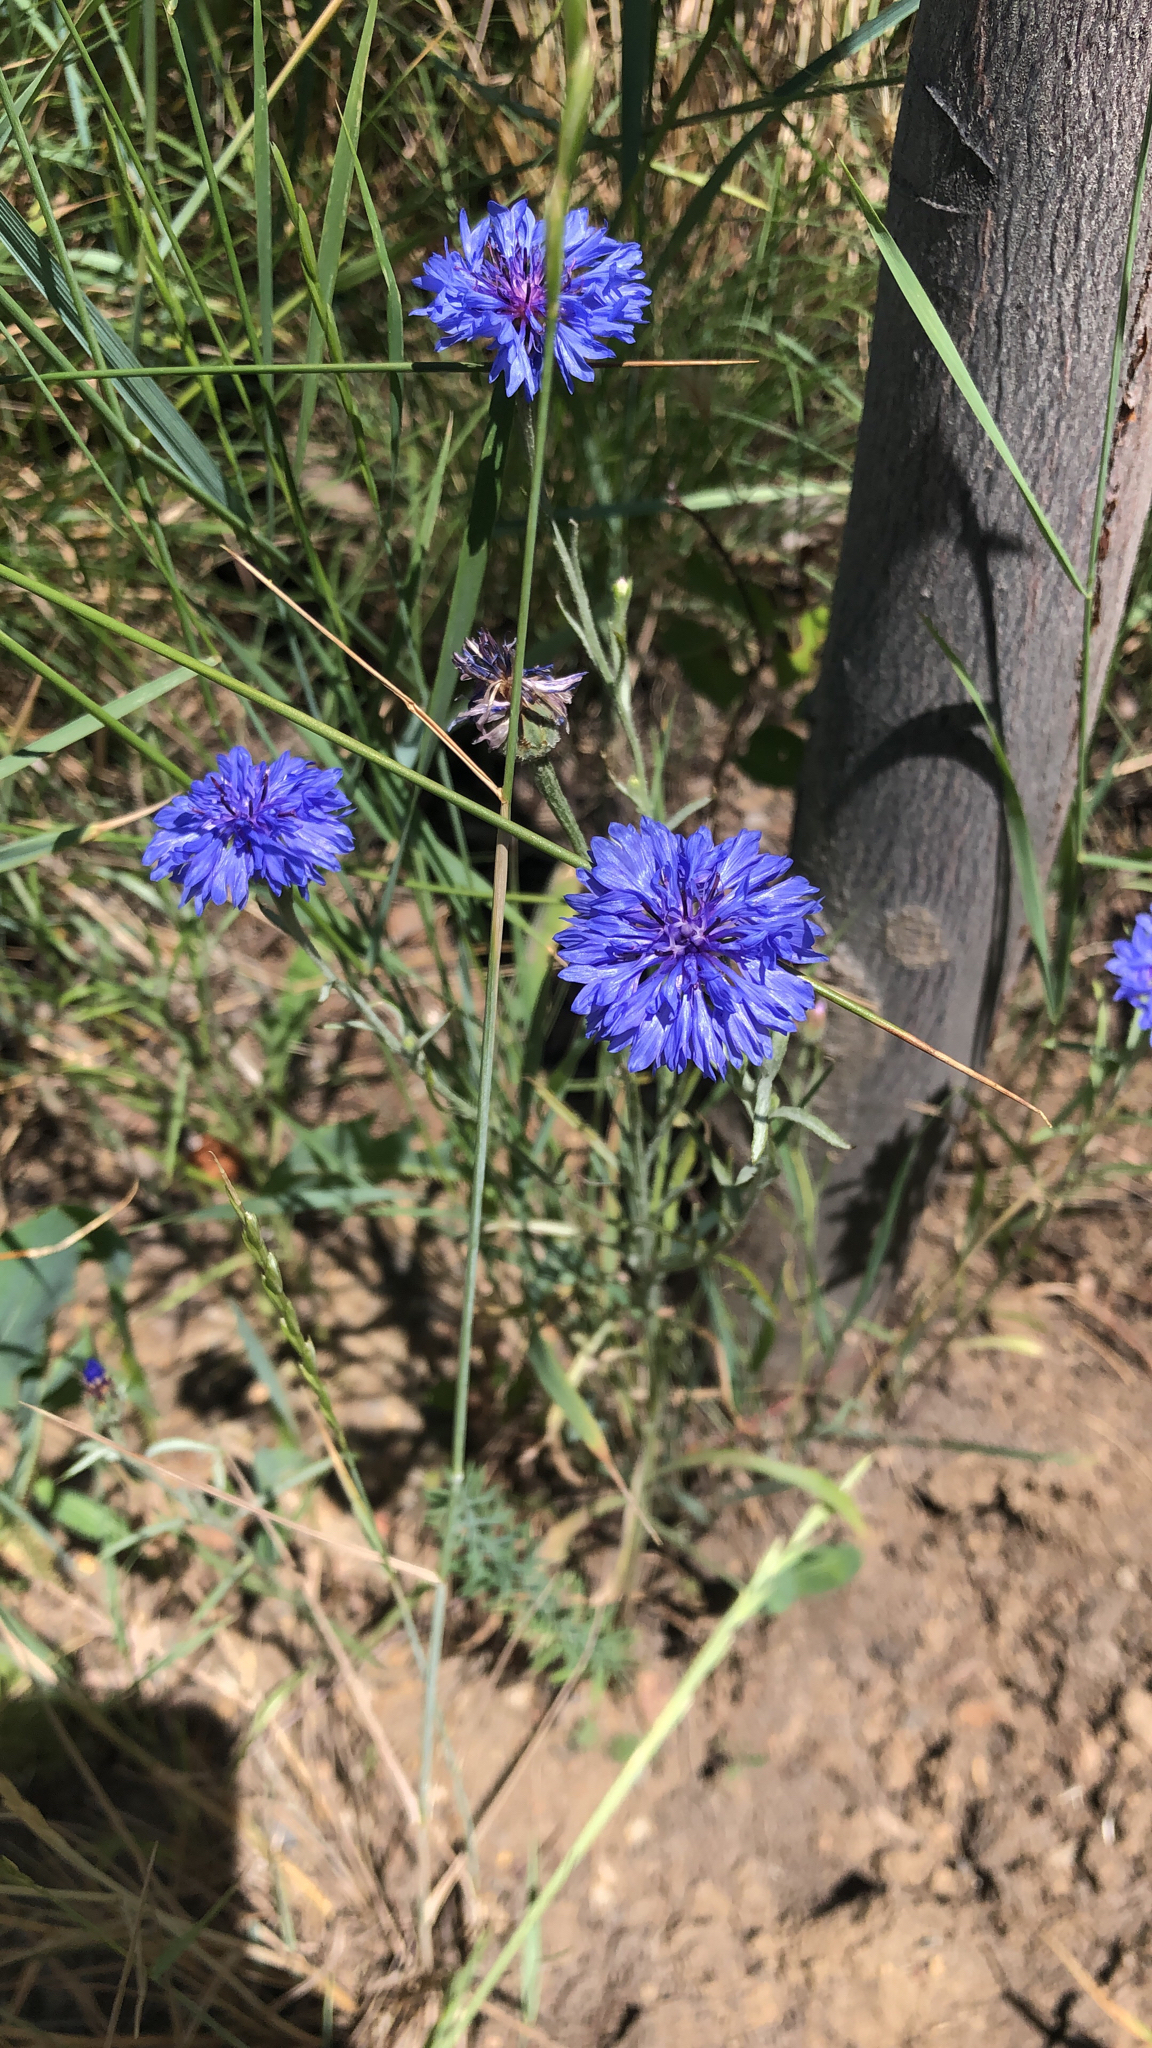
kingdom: Plantae
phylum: Tracheophyta
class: Magnoliopsida
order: Asterales
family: Asteraceae
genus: Centaurea
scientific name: Centaurea cyanus
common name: Cornflower
